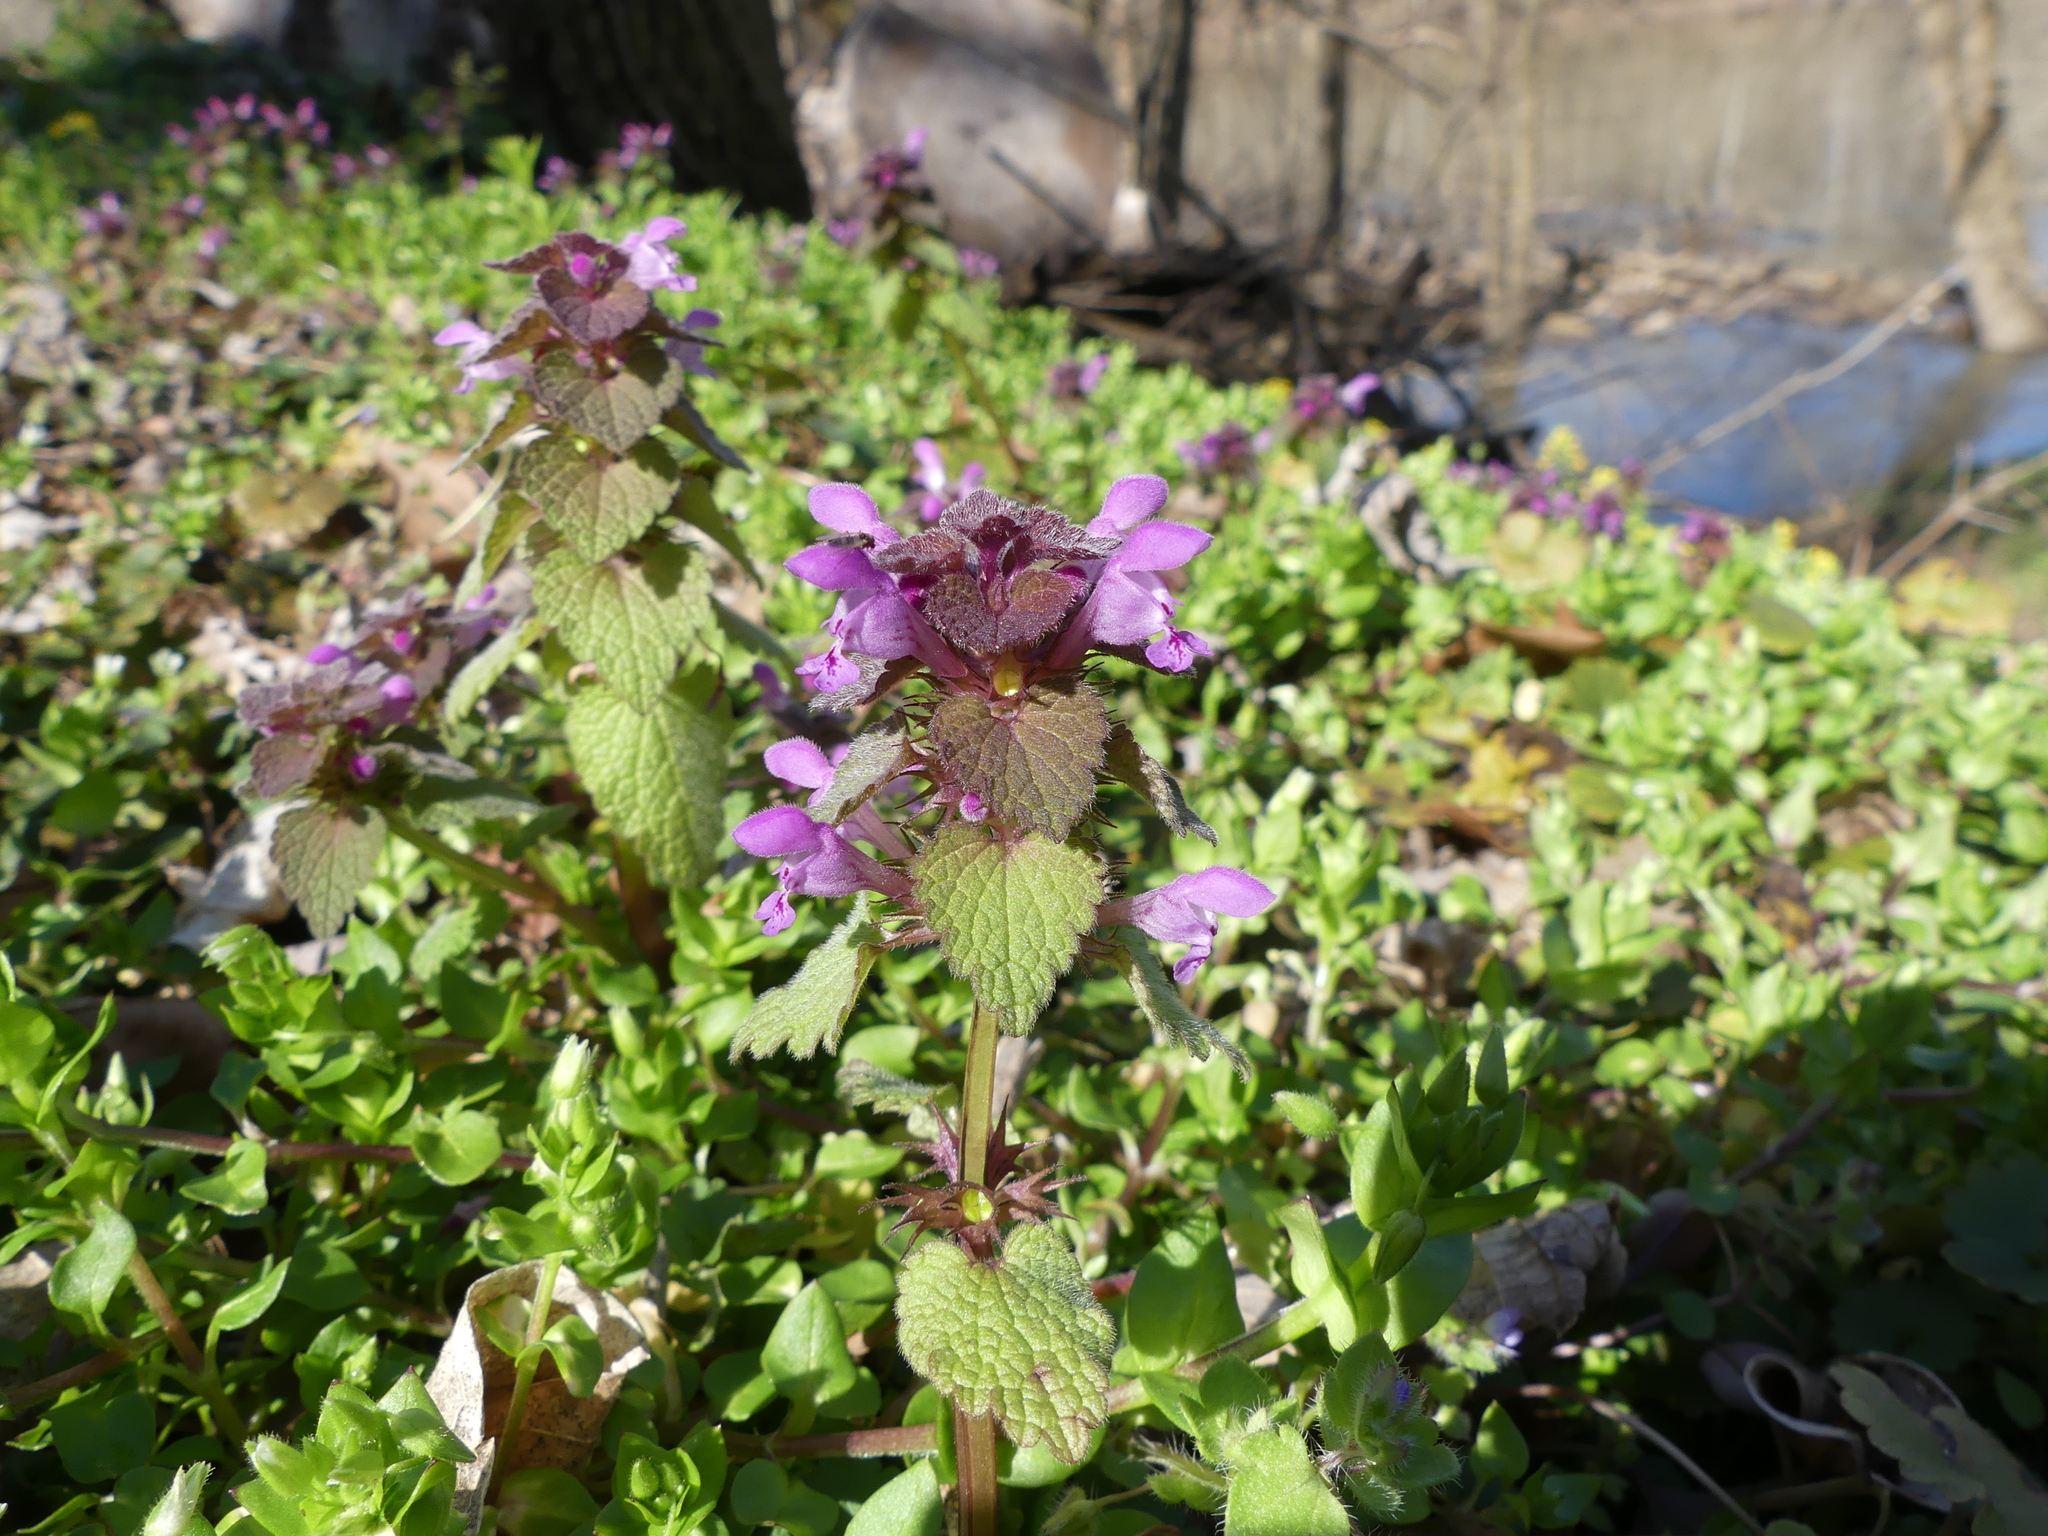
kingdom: Plantae
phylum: Tracheophyta
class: Magnoliopsida
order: Lamiales
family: Lamiaceae
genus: Lamium
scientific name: Lamium purpureum
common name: Red dead-nettle
